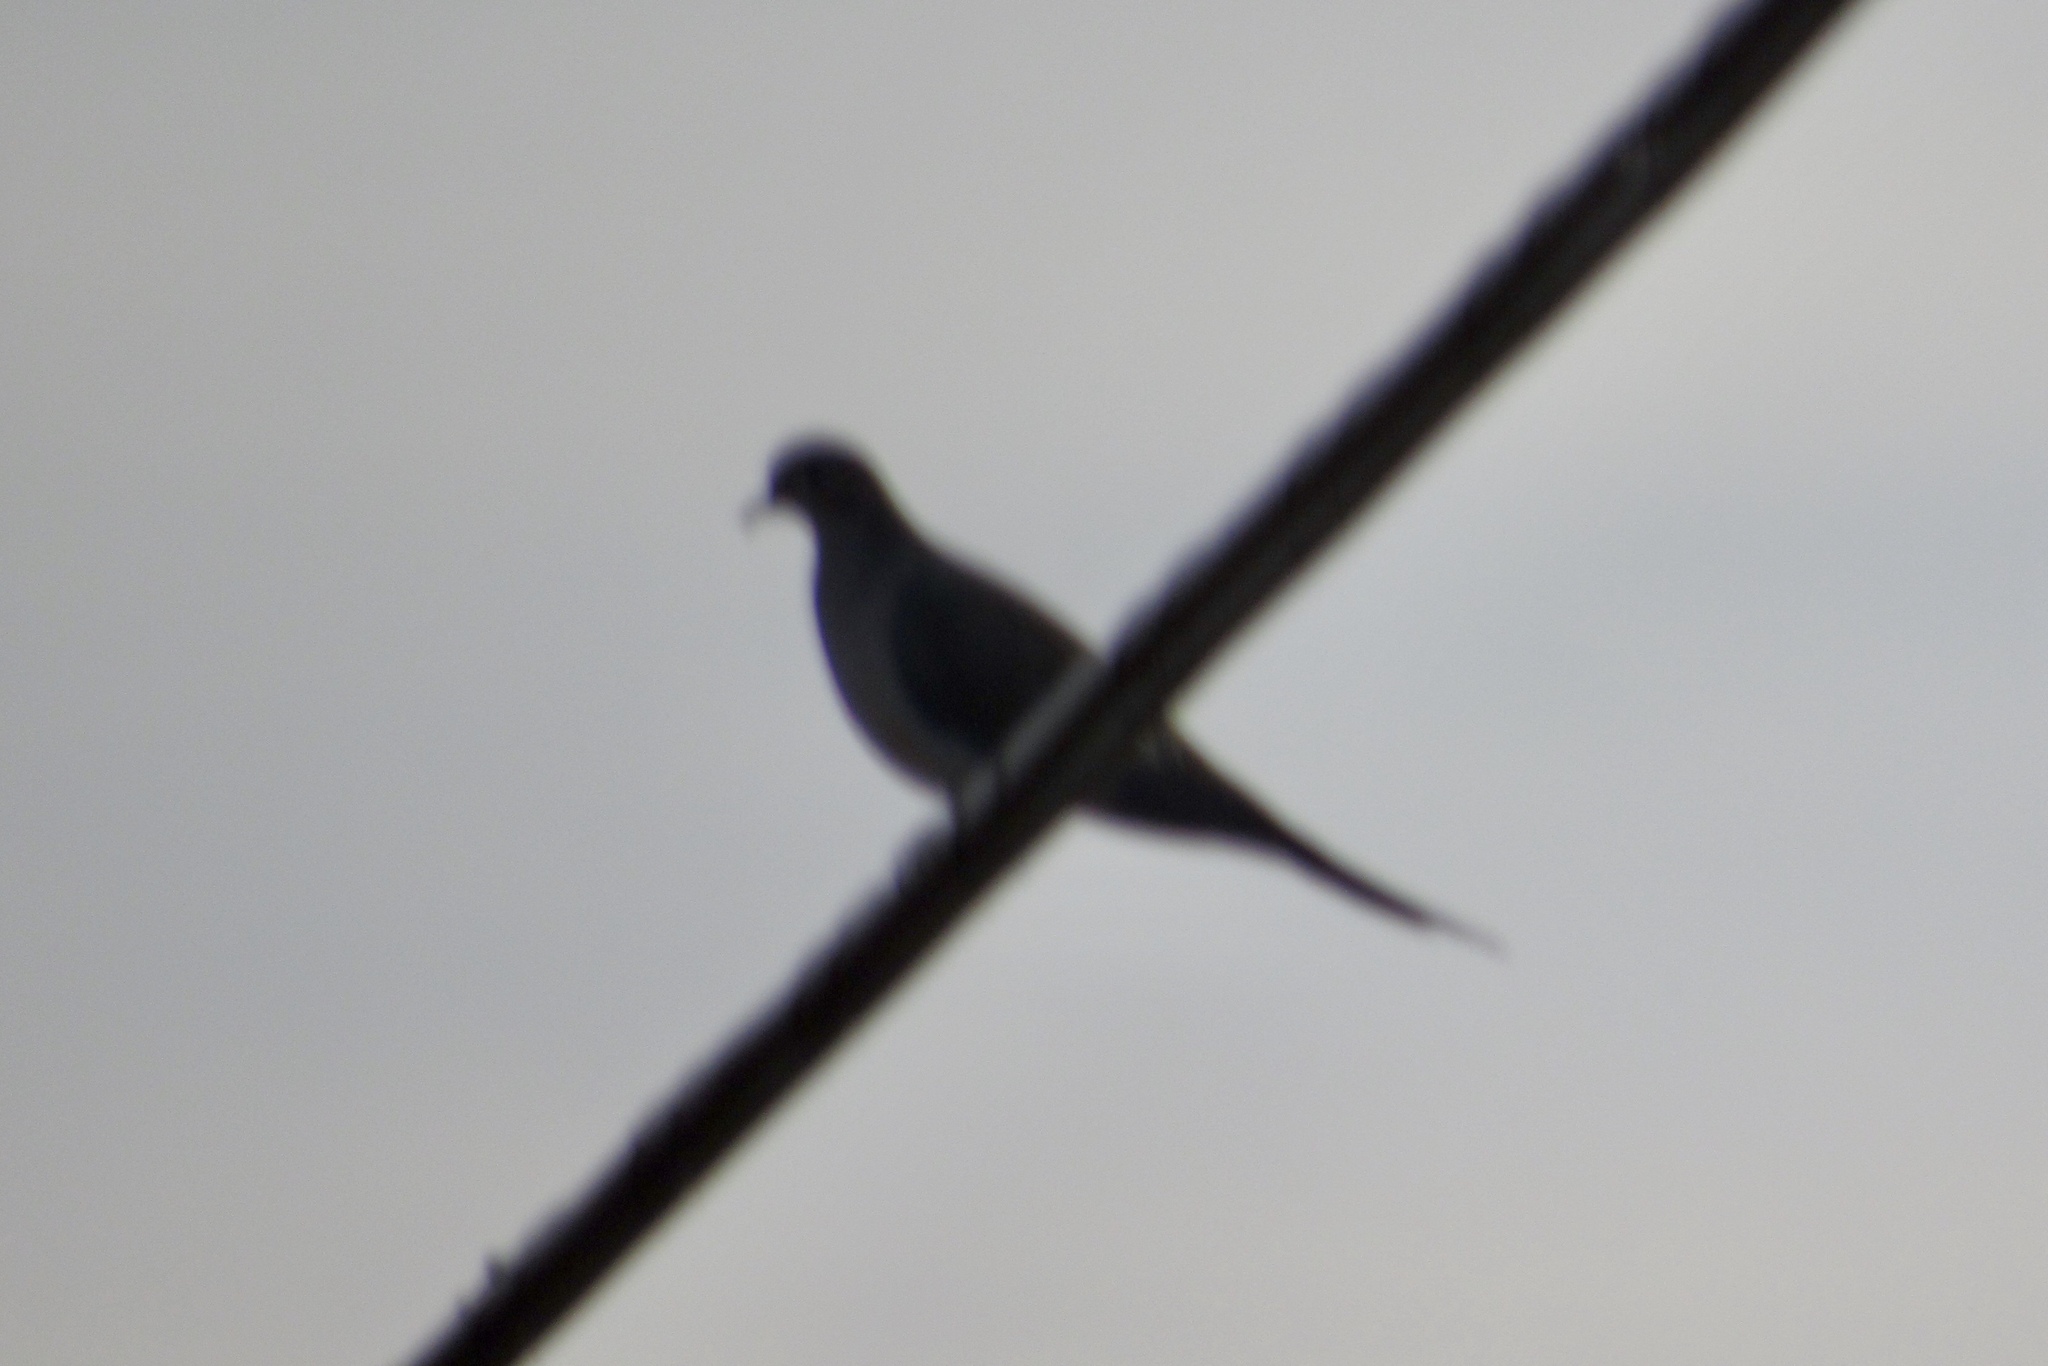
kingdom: Animalia
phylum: Chordata
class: Aves
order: Columbiformes
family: Columbidae
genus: Zenaida
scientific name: Zenaida macroura
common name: Mourning dove
